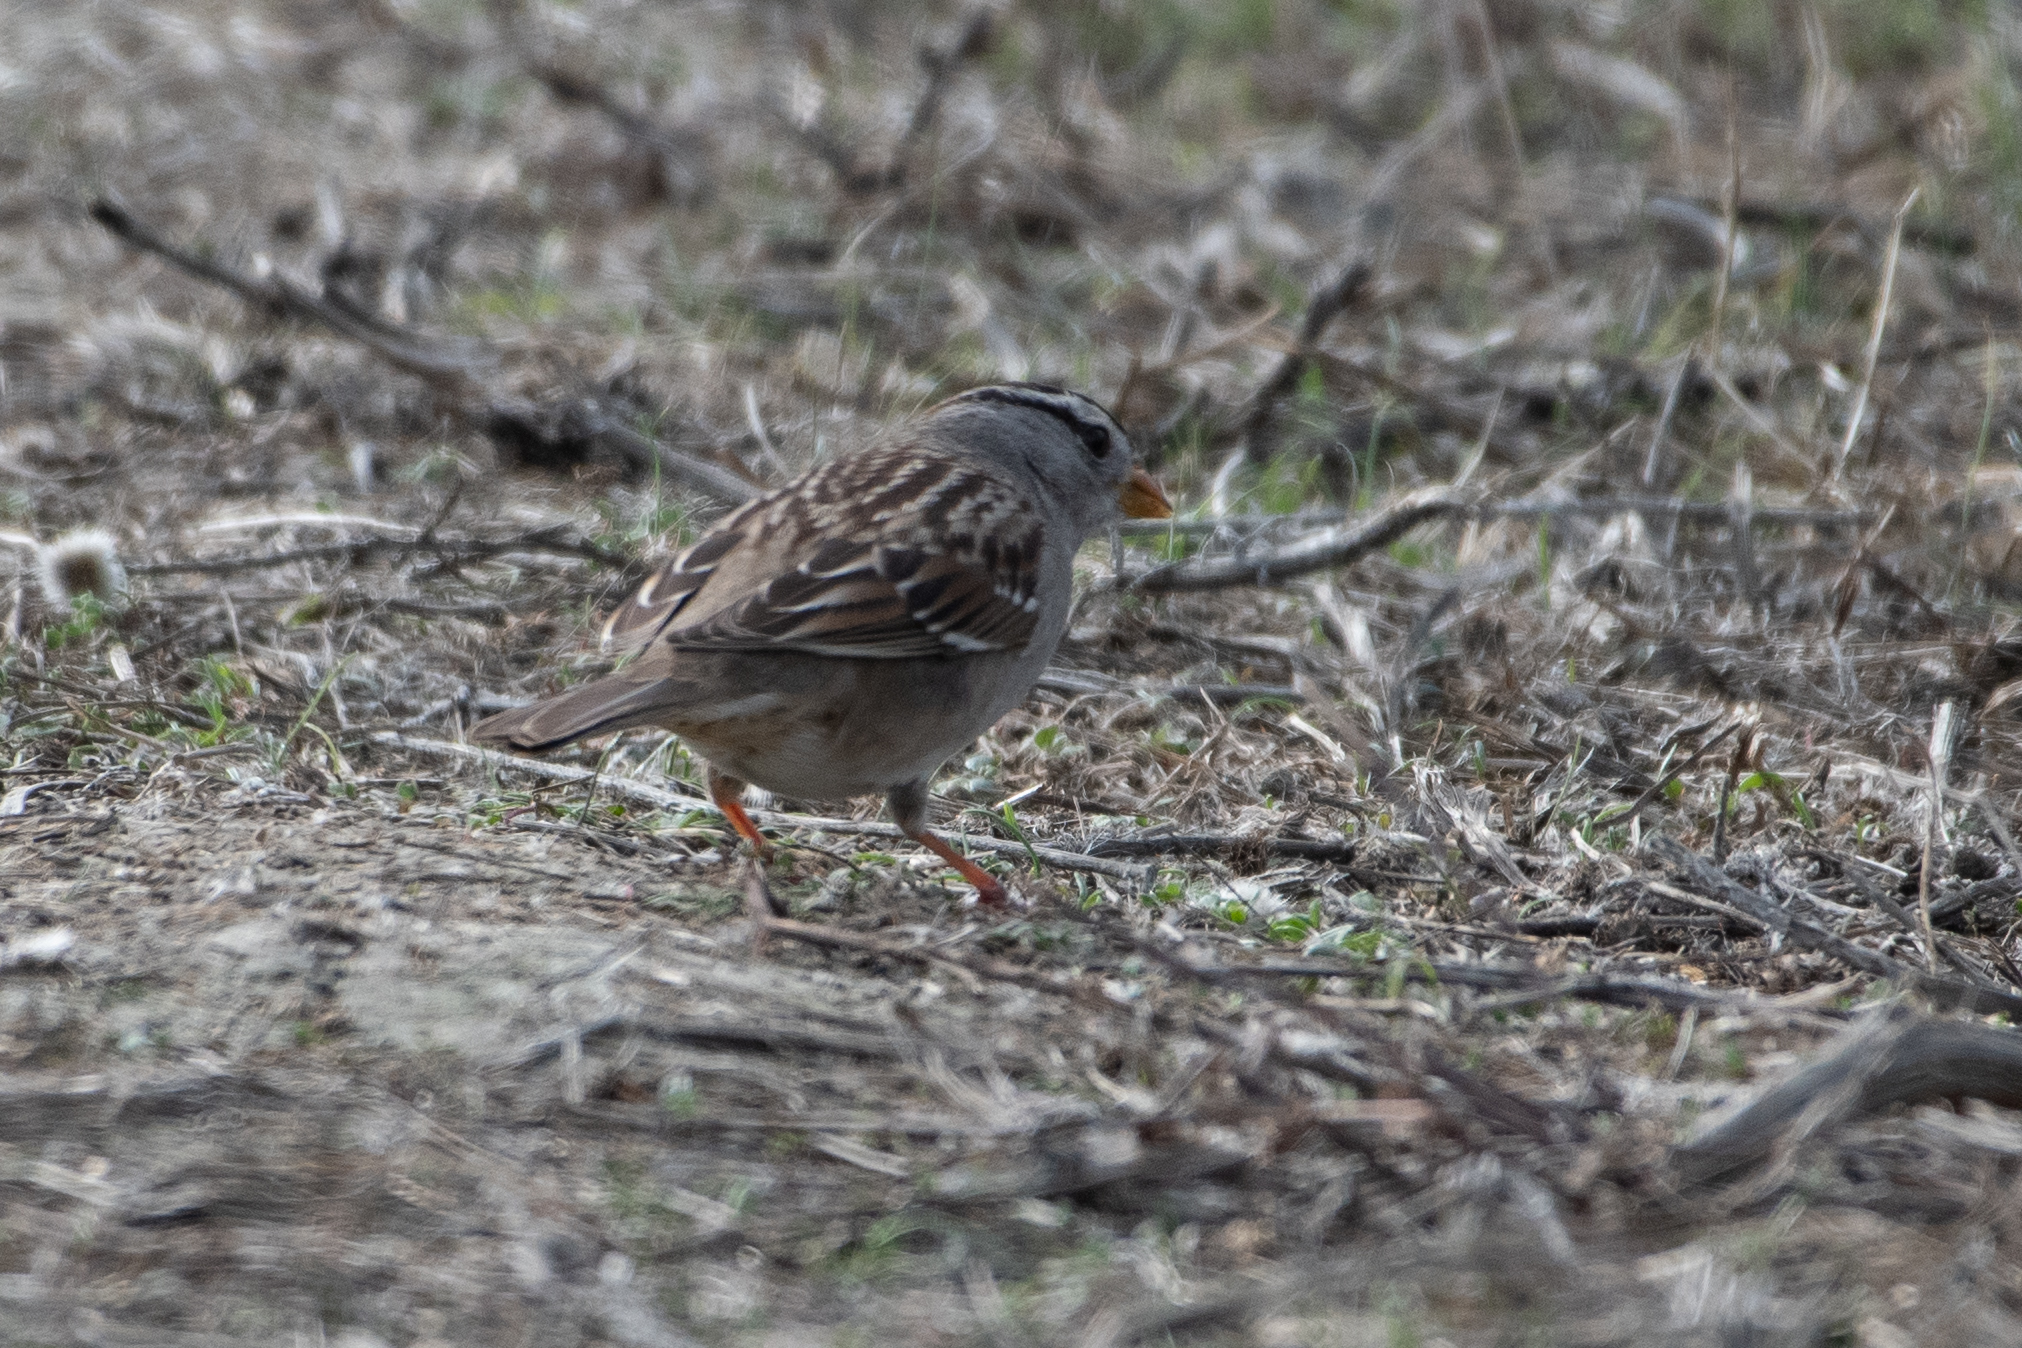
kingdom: Animalia
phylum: Chordata
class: Aves
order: Passeriformes
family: Passerellidae
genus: Zonotrichia
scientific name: Zonotrichia leucophrys
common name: White-crowned sparrow
